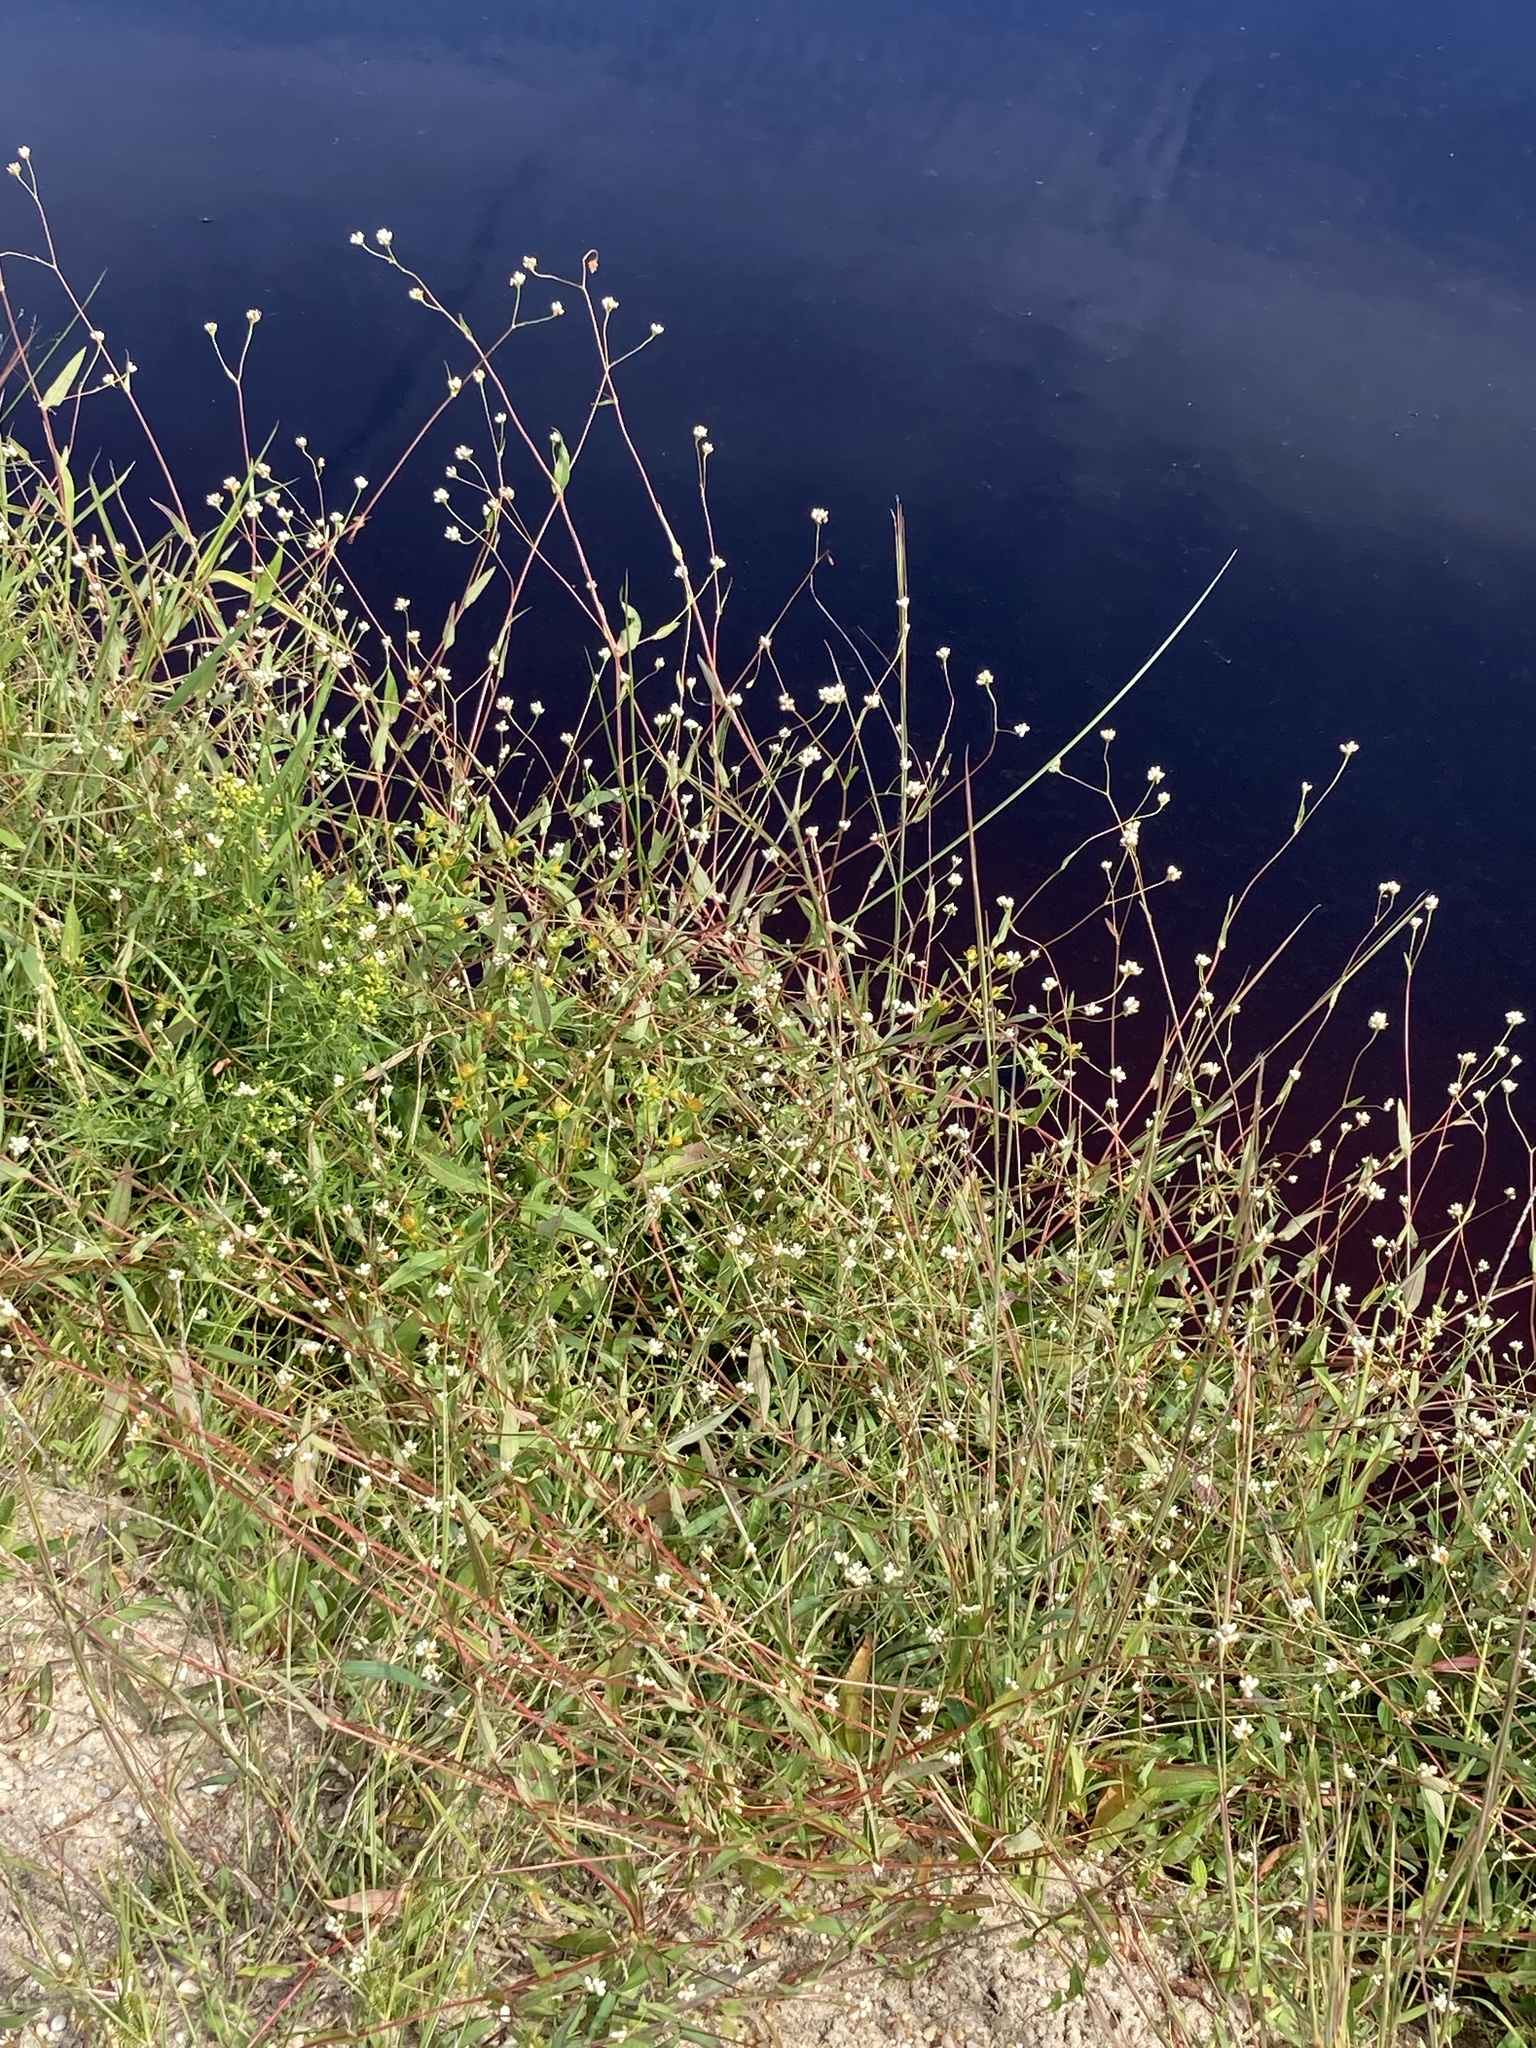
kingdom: Plantae
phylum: Tracheophyta
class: Magnoliopsida
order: Caryophyllales
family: Polygonaceae
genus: Persicaria
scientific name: Persicaria sagittata
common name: American tearthumb
